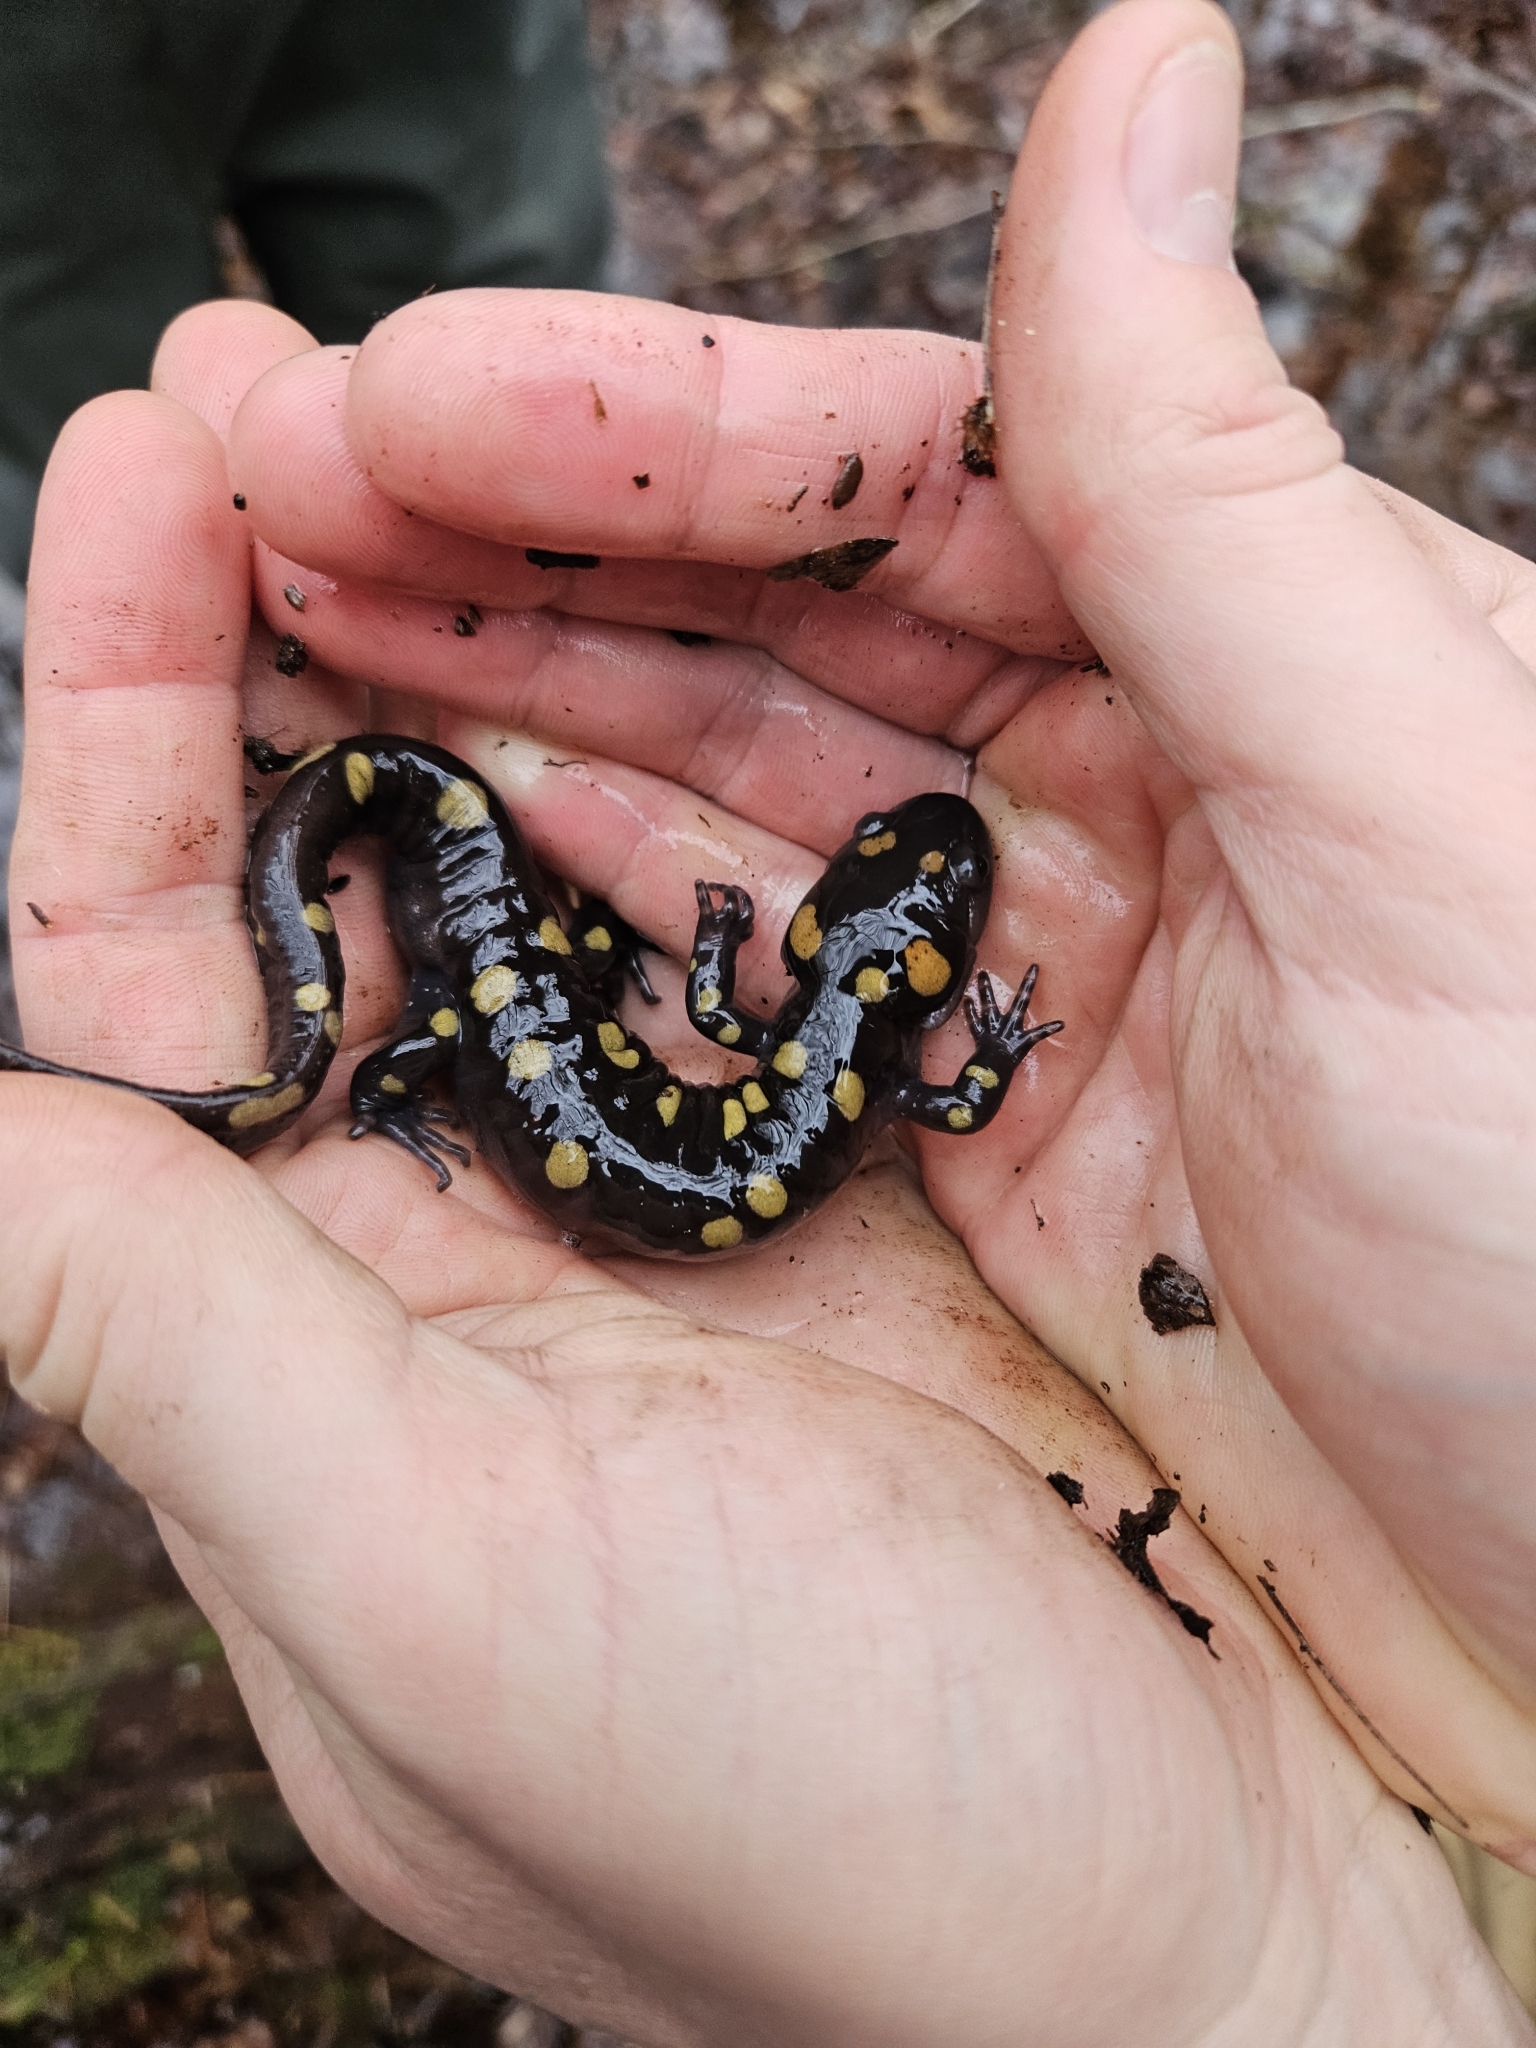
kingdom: Animalia
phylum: Chordata
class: Amphibia
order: Caudata
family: Ambystomatidae
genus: Ambystoma
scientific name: Ambystoma maculatum
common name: Spotted salamander
